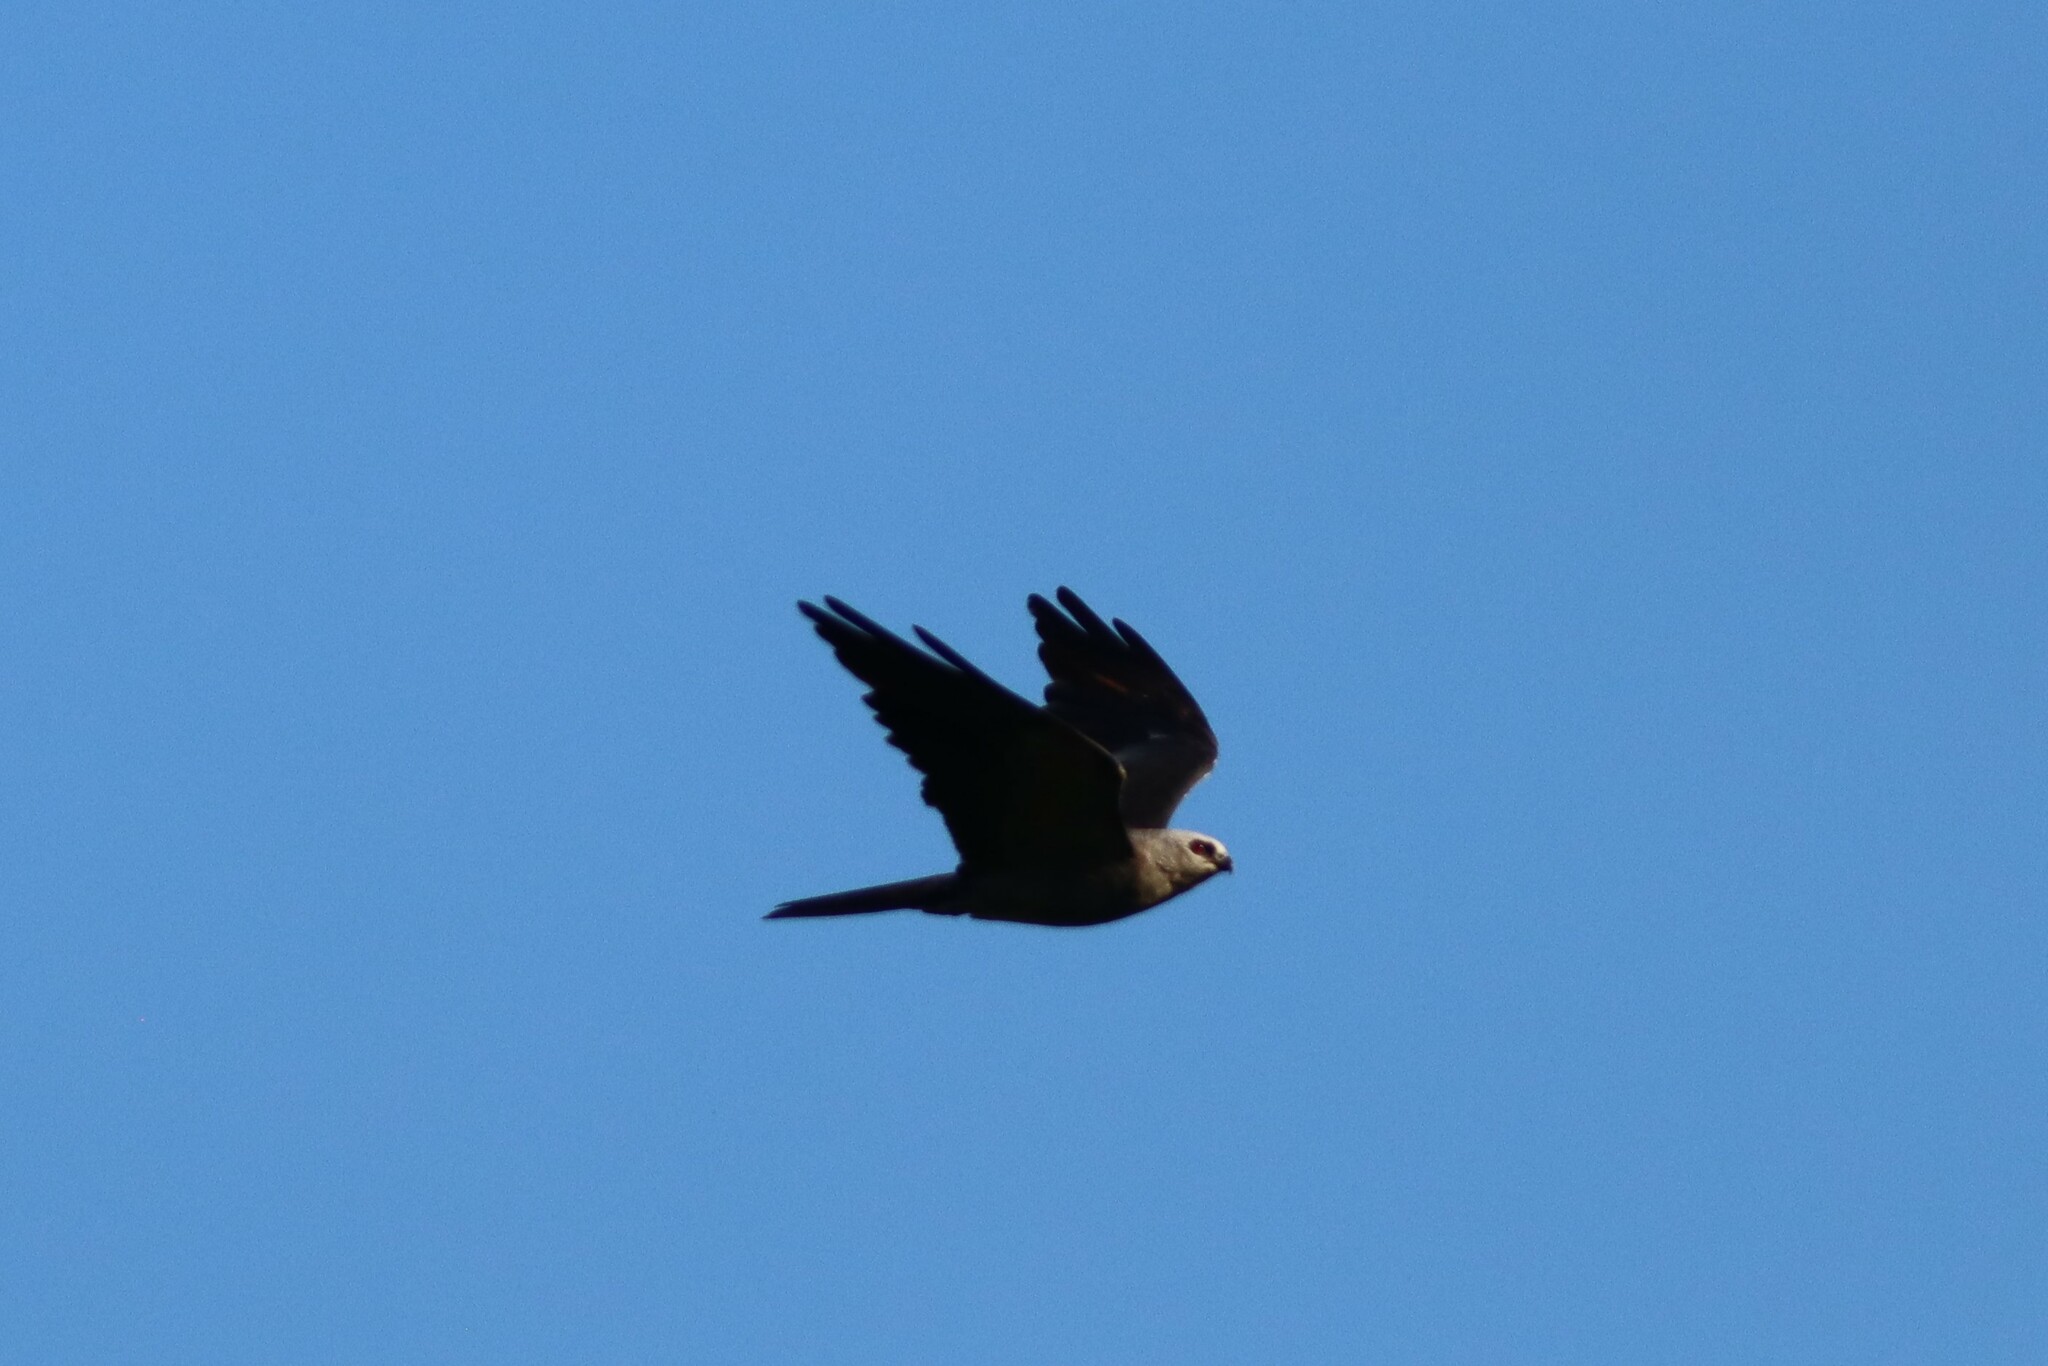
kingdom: Animalia
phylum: Chordata
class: Aves
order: Accipitriformes
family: Accipitridae
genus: Ictinia
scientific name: Ictinia mississippiensis
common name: Mississippi kite
